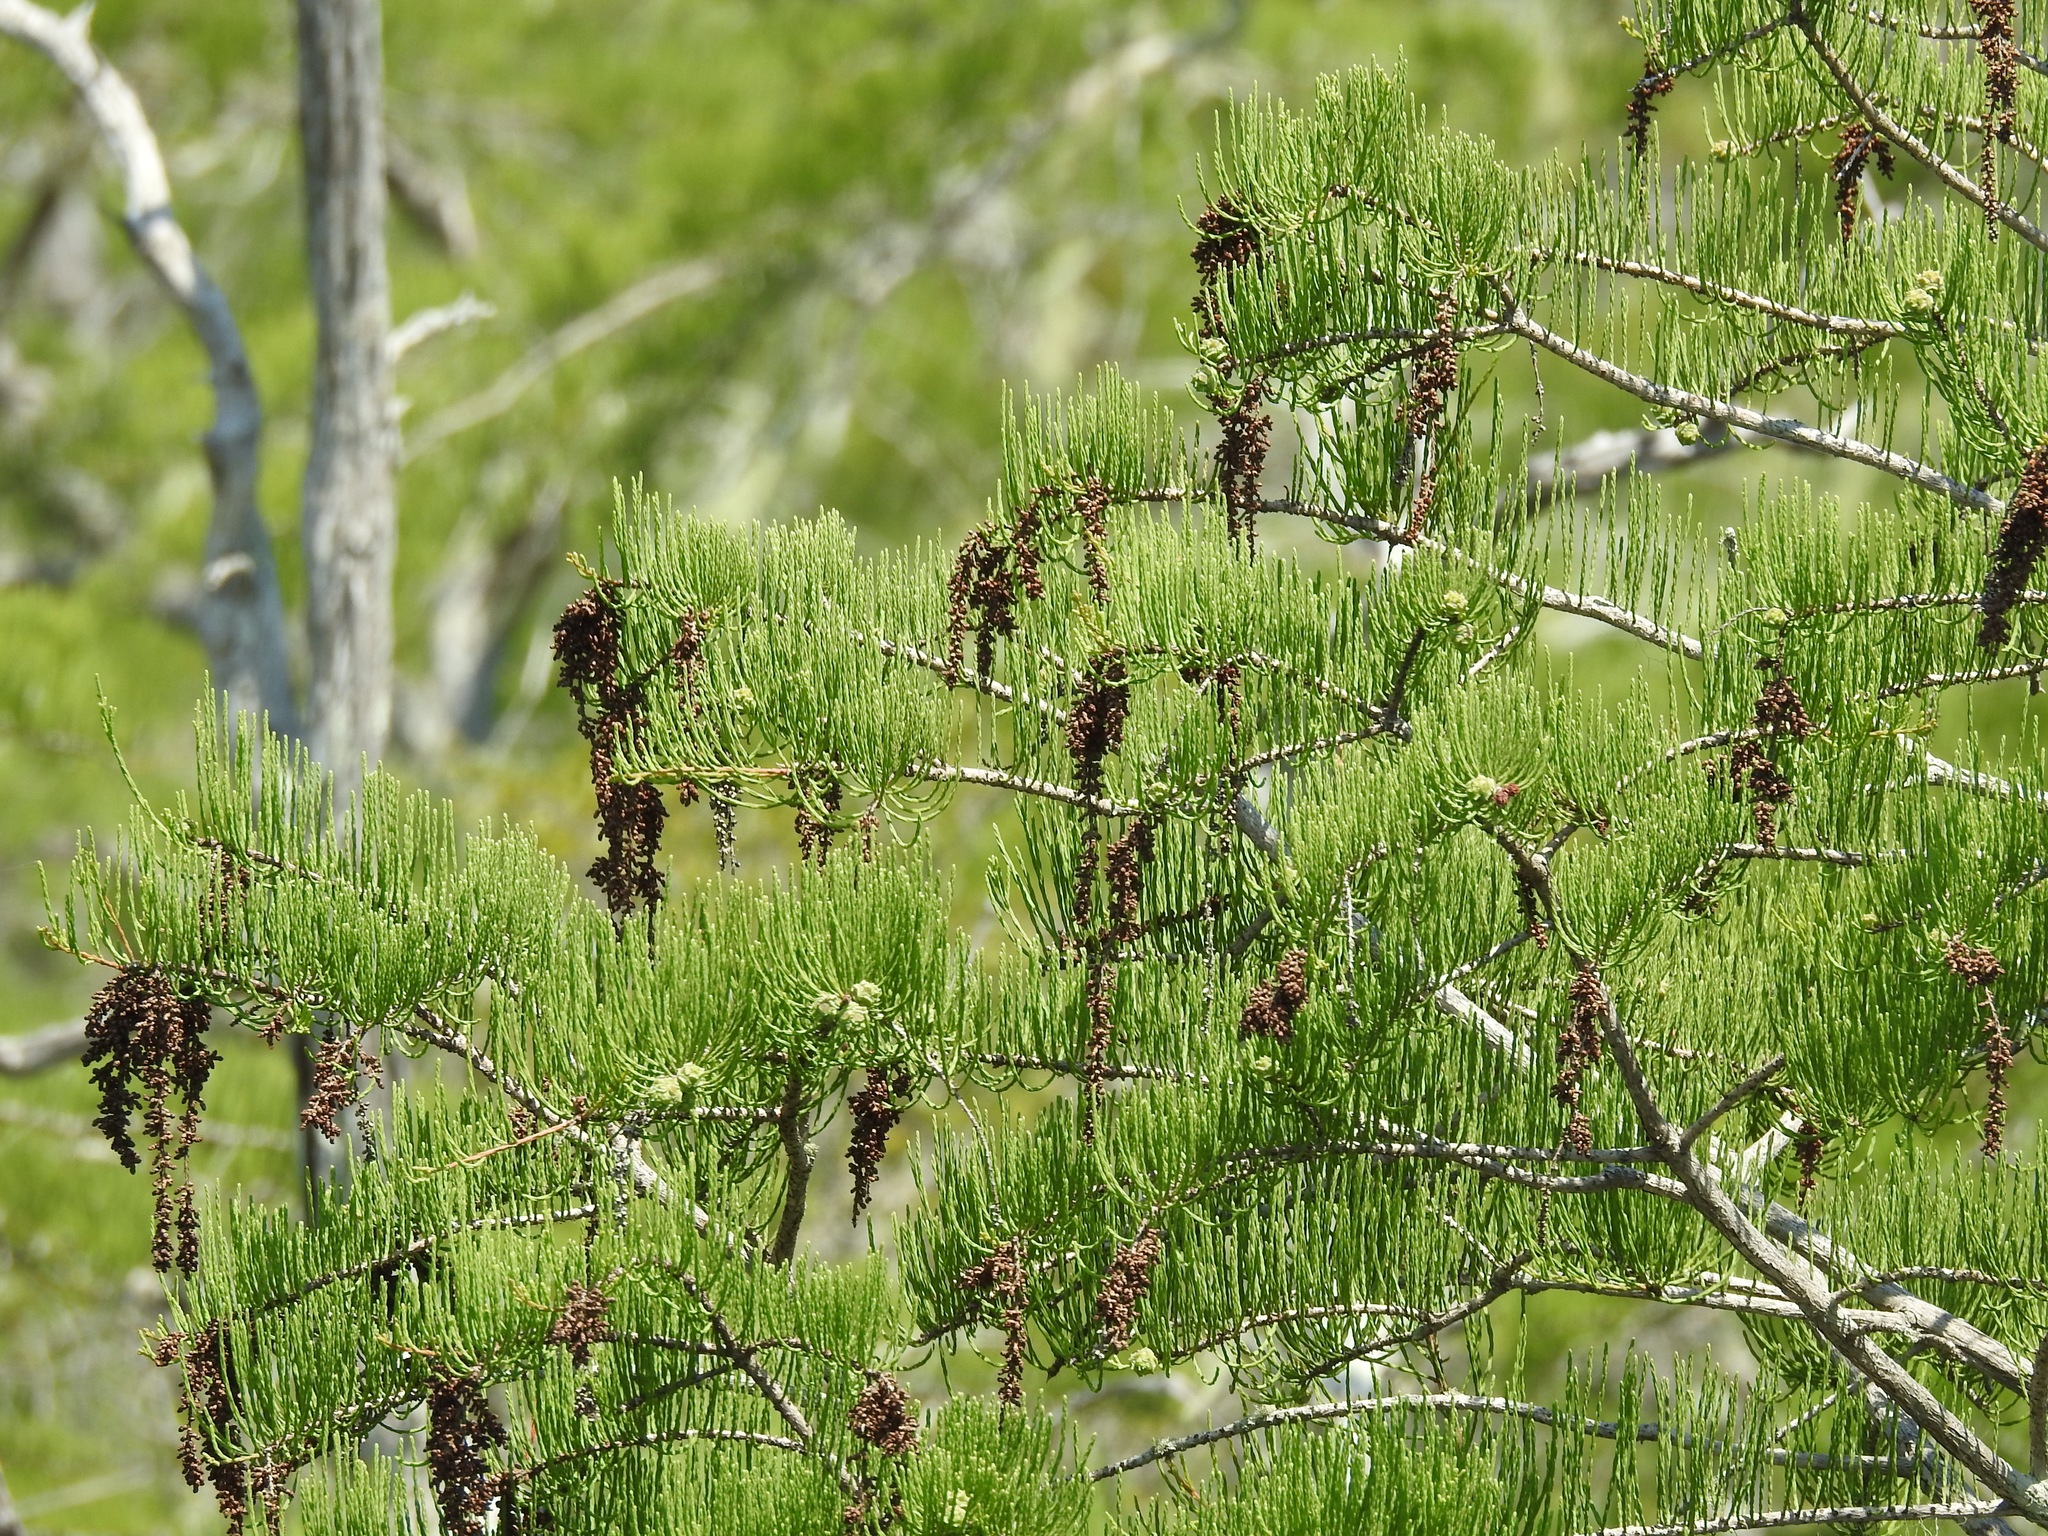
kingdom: Plantae
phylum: Tracheophyta
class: Pinopsida
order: Pinales
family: Cupressaceae
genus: Taxodium
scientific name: Taxodium distichum
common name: Bald cypress
